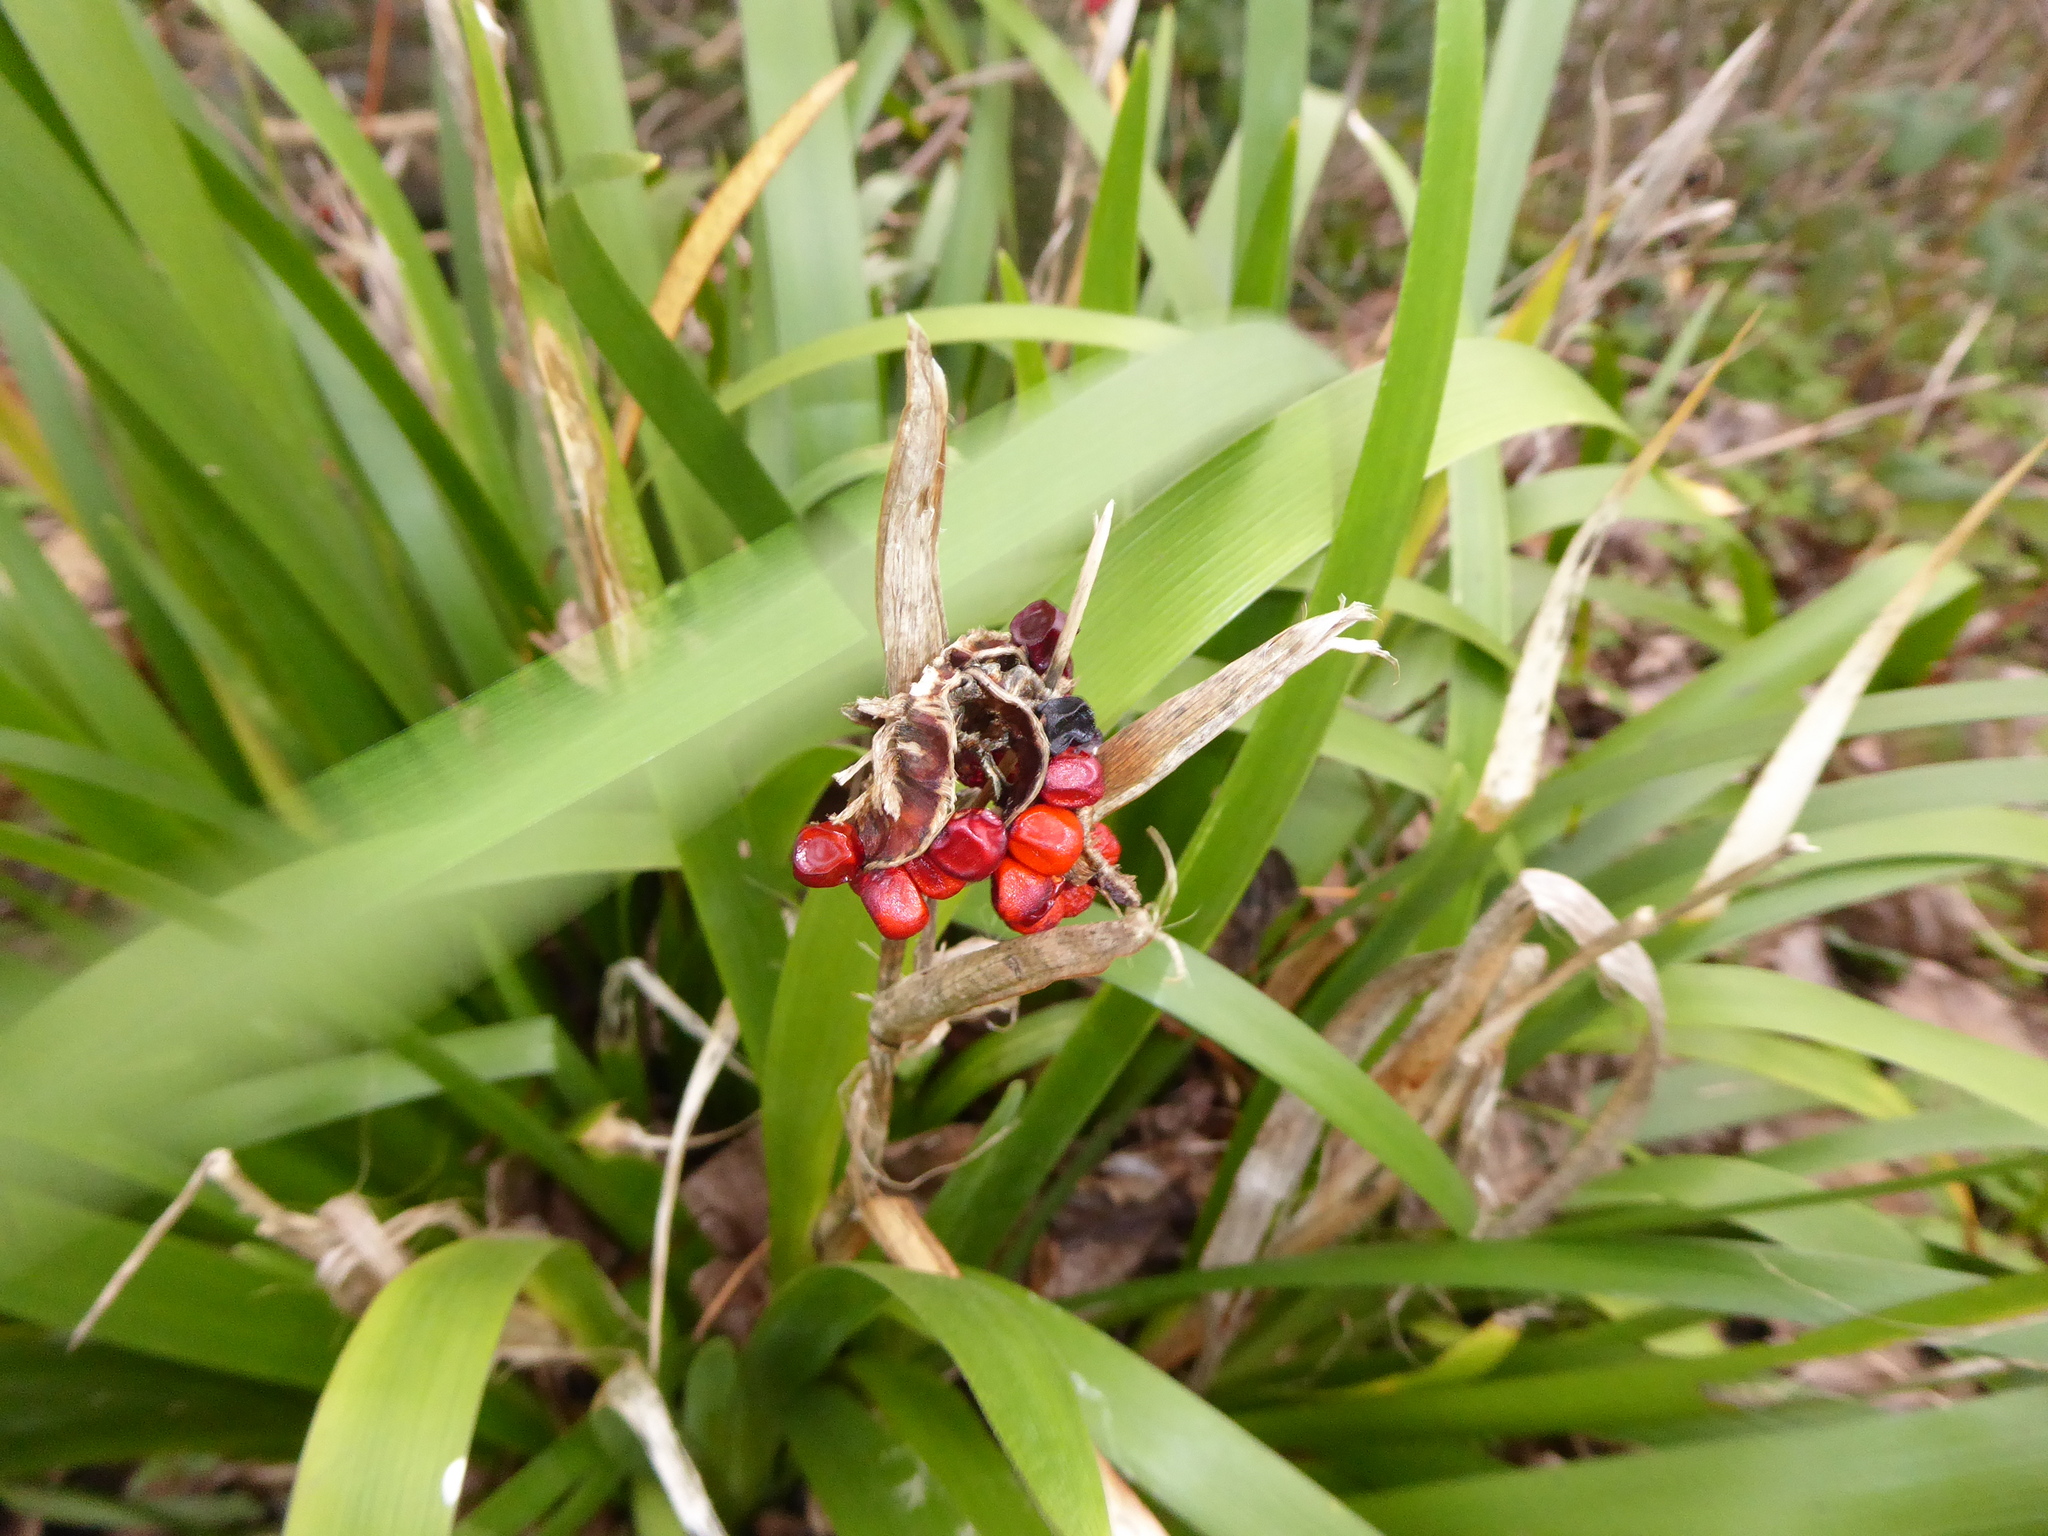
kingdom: Plantae
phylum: Tracheophyta
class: Liliopsida
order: Asparagales
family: Iridaceae
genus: Iris
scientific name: Iris foetidissima
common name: Stinking iris
